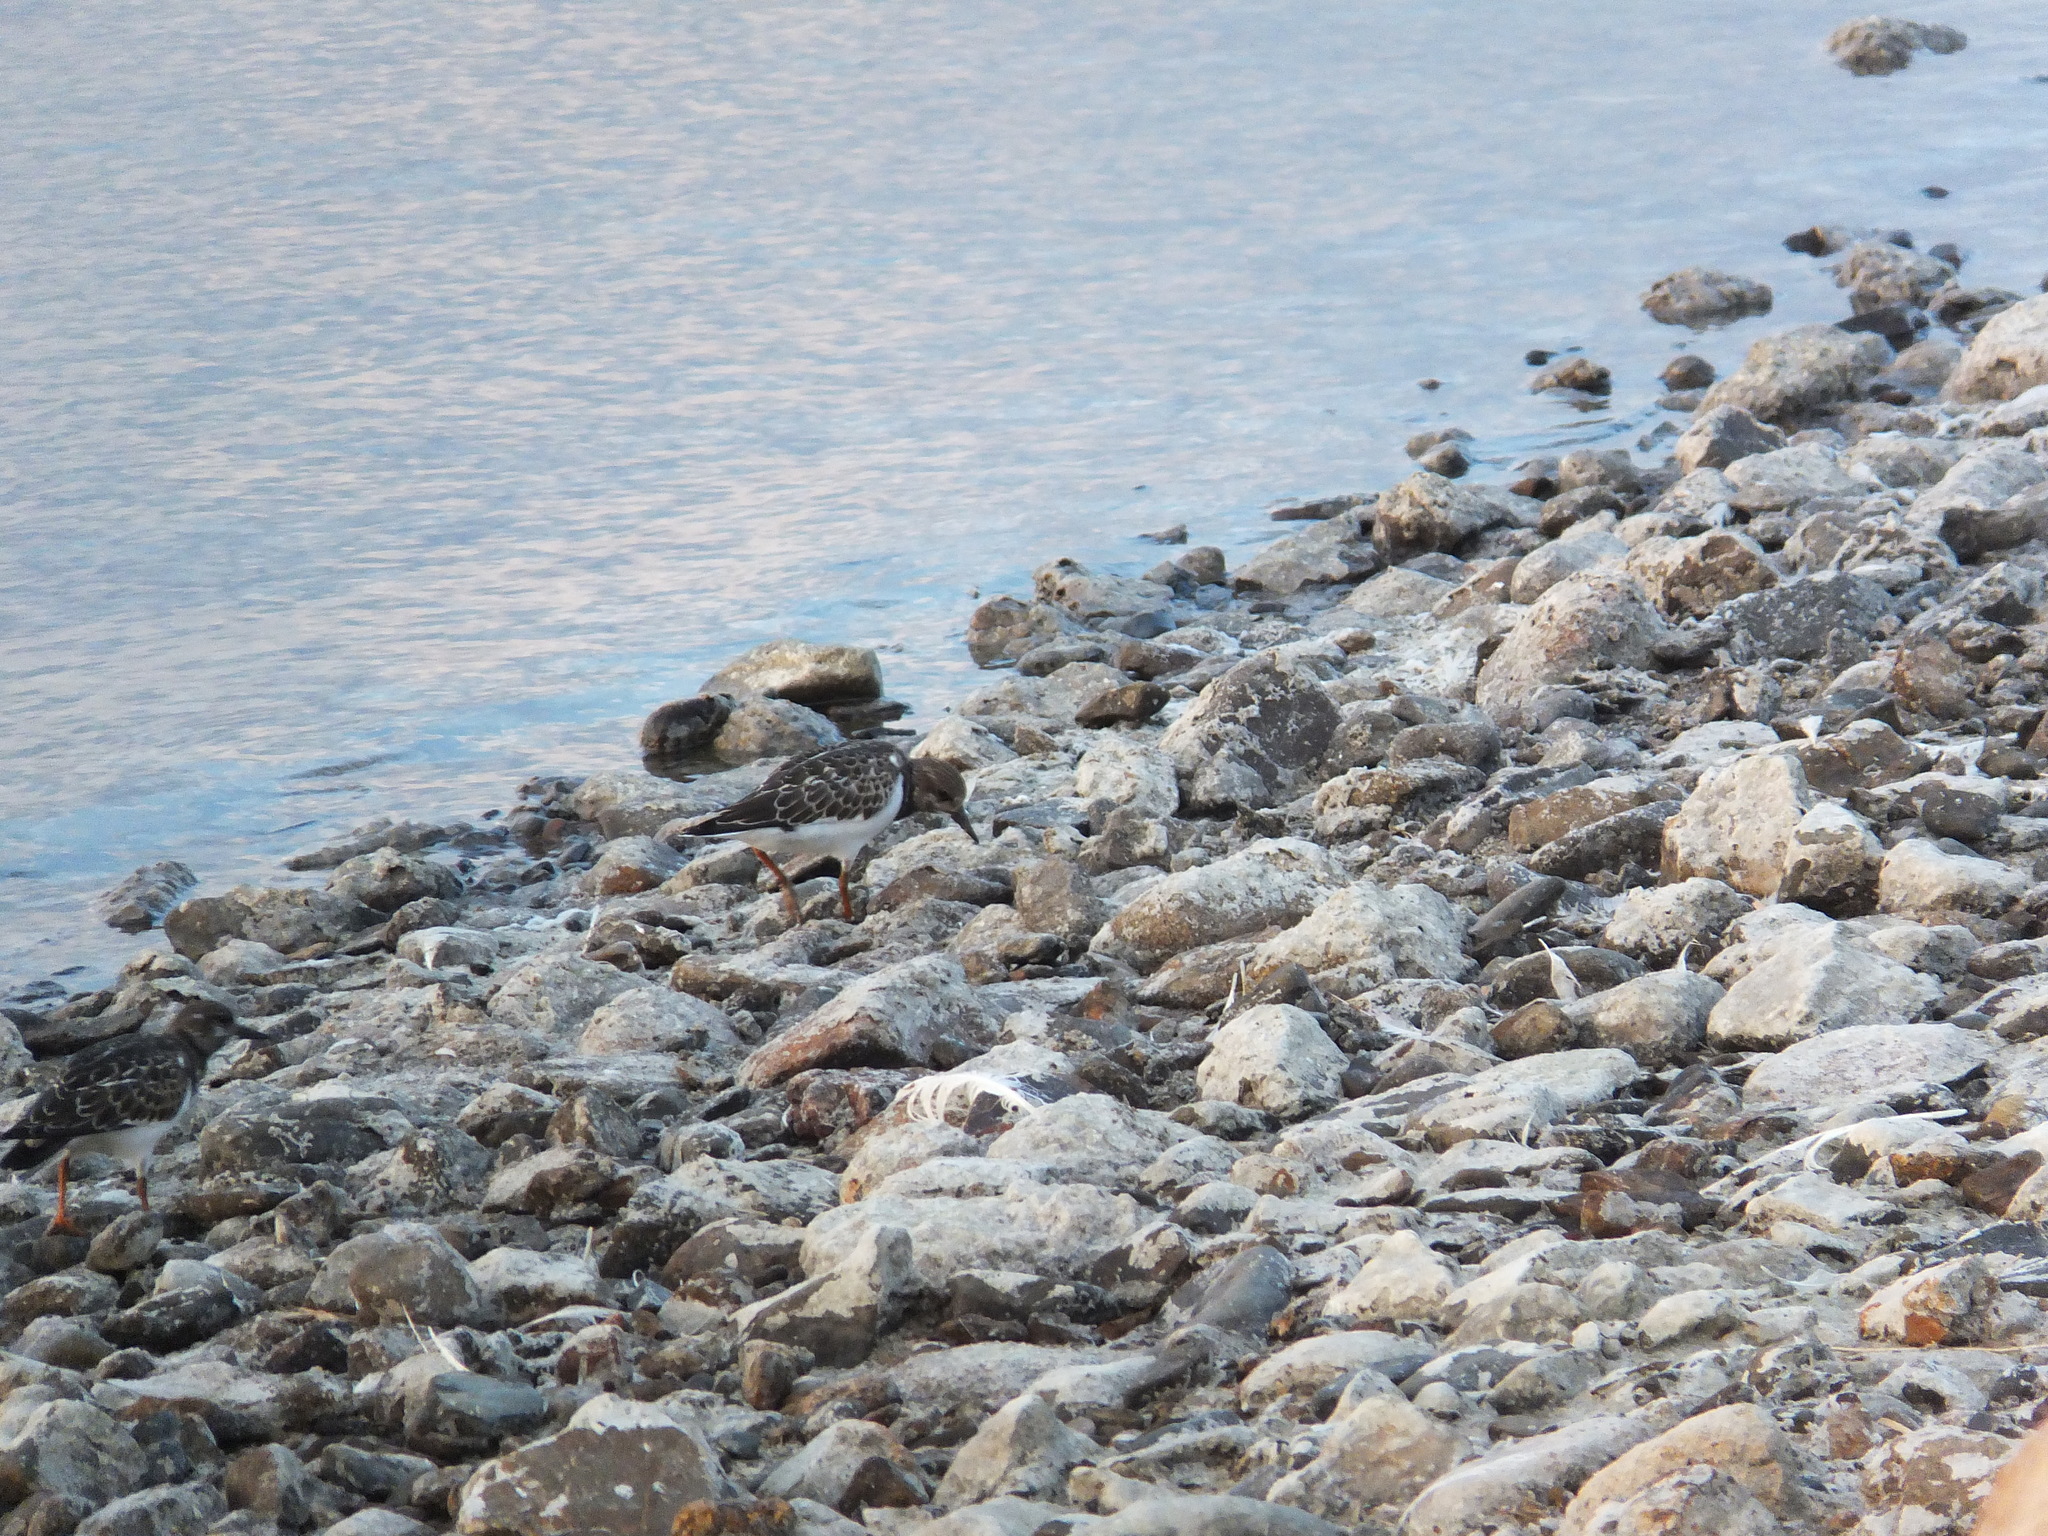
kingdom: Animalia
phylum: Chordata
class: Aves
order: Charadriiformes
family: Scolopacidae
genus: Arenaria
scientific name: Arenaria interpres
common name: Ruddy turnstone
